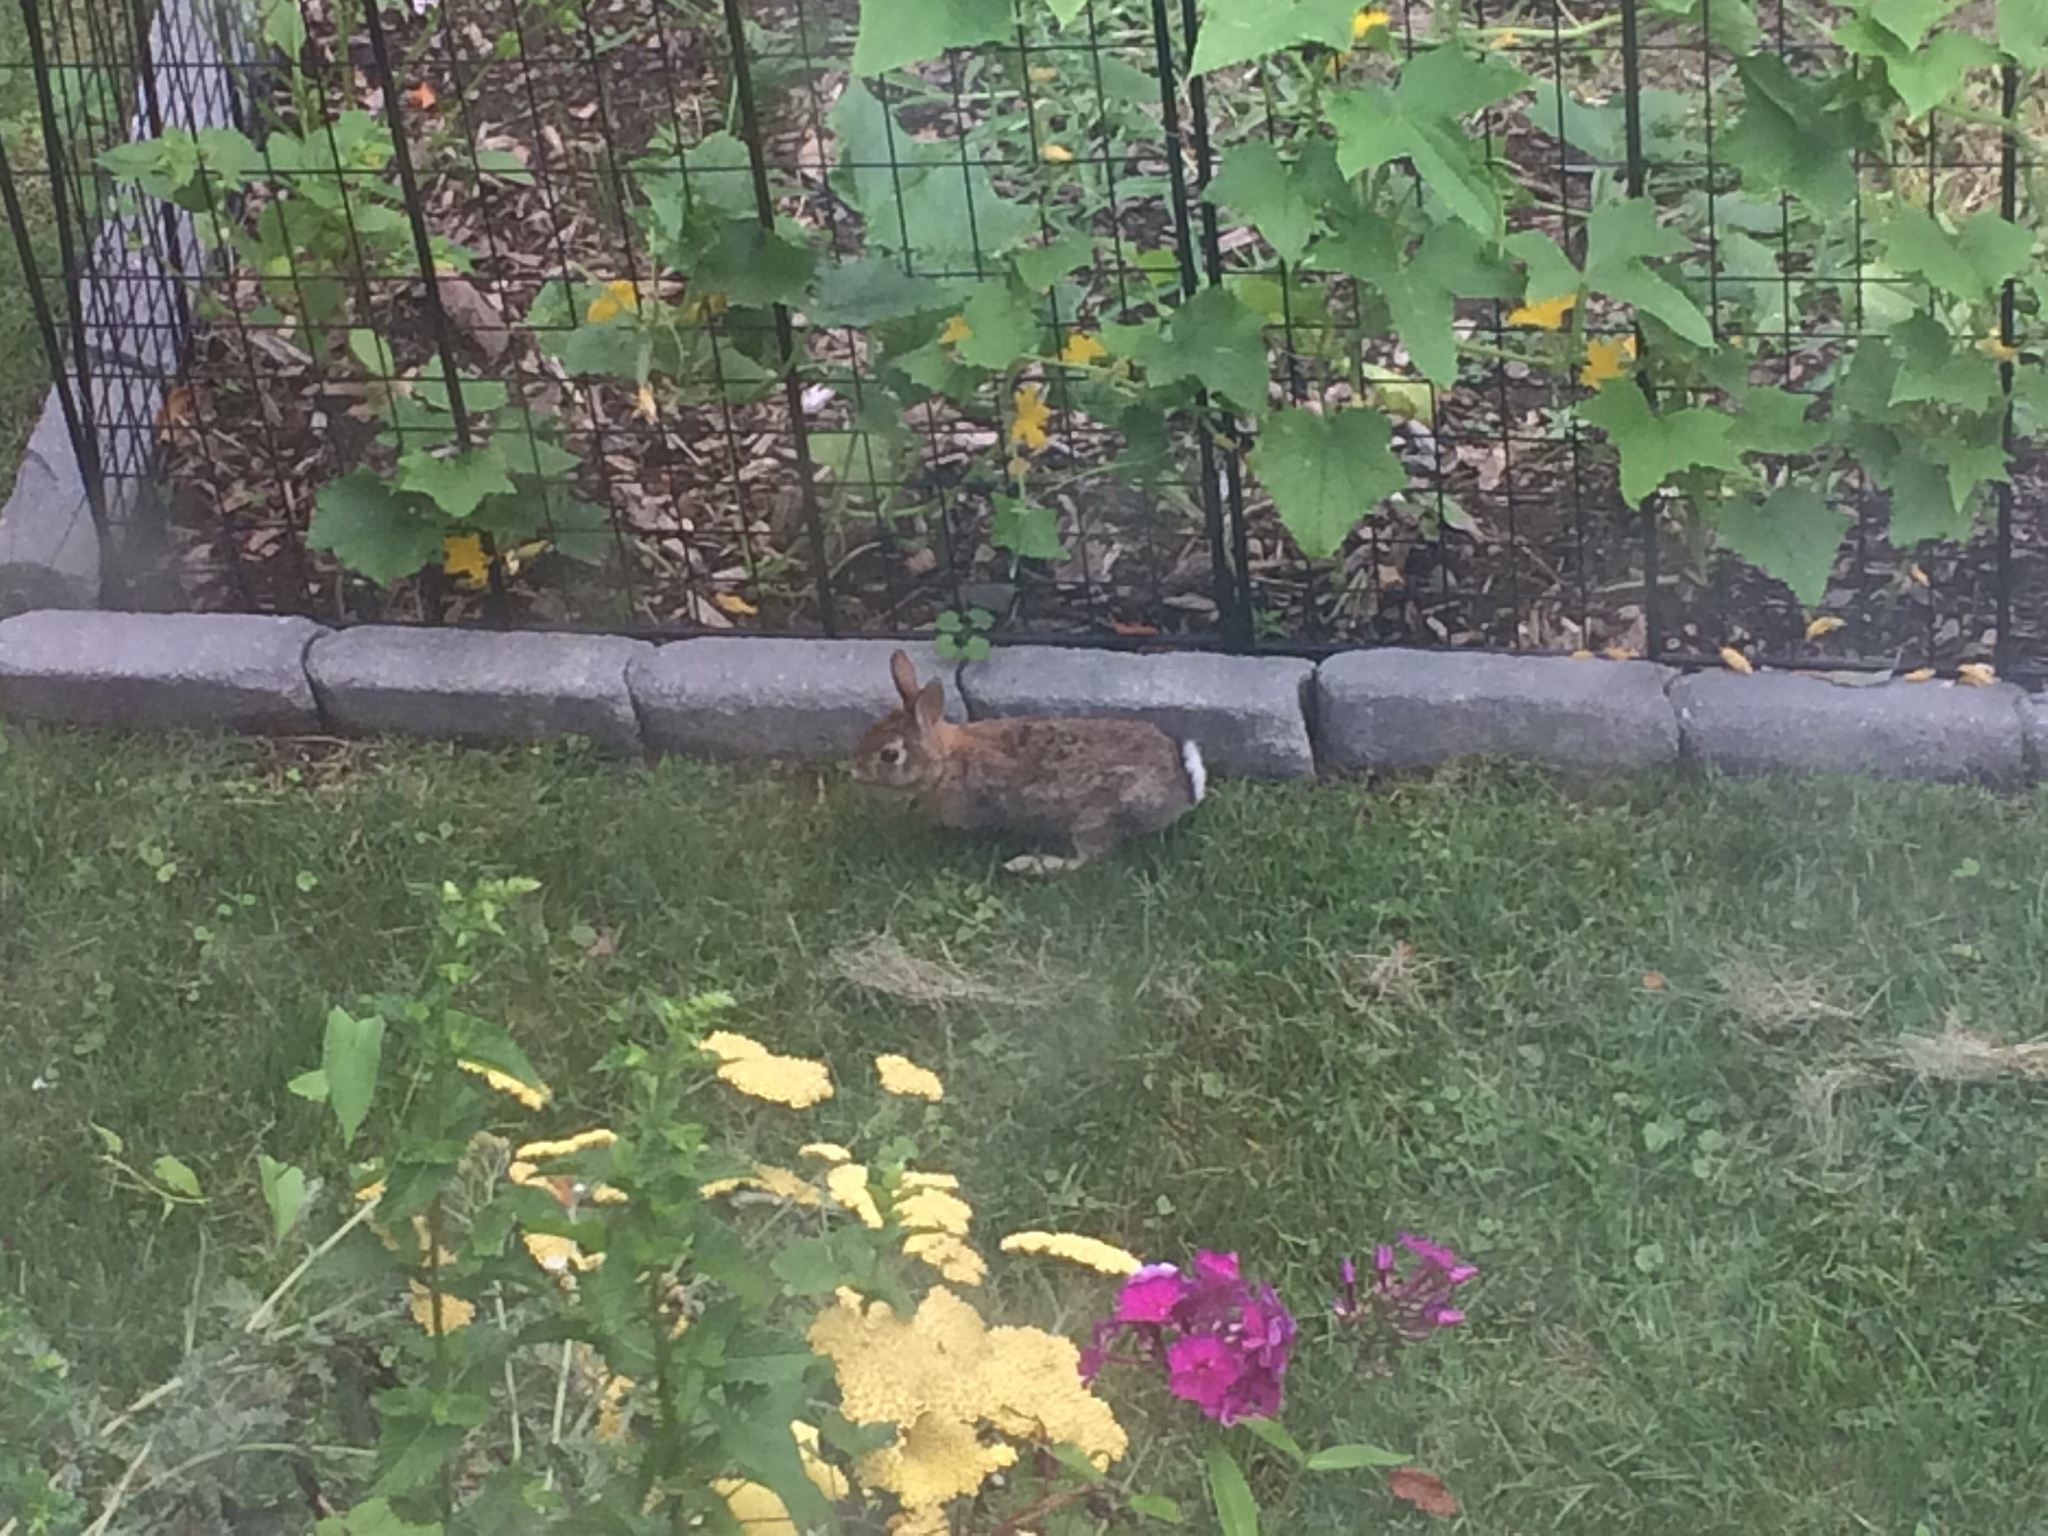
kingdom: Animalia
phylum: Chordata
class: Mammalia
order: Lagomorpha
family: Leporidae
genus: Sylvilagus
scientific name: Sylvilagus floridanus
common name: Eastern cottontail
